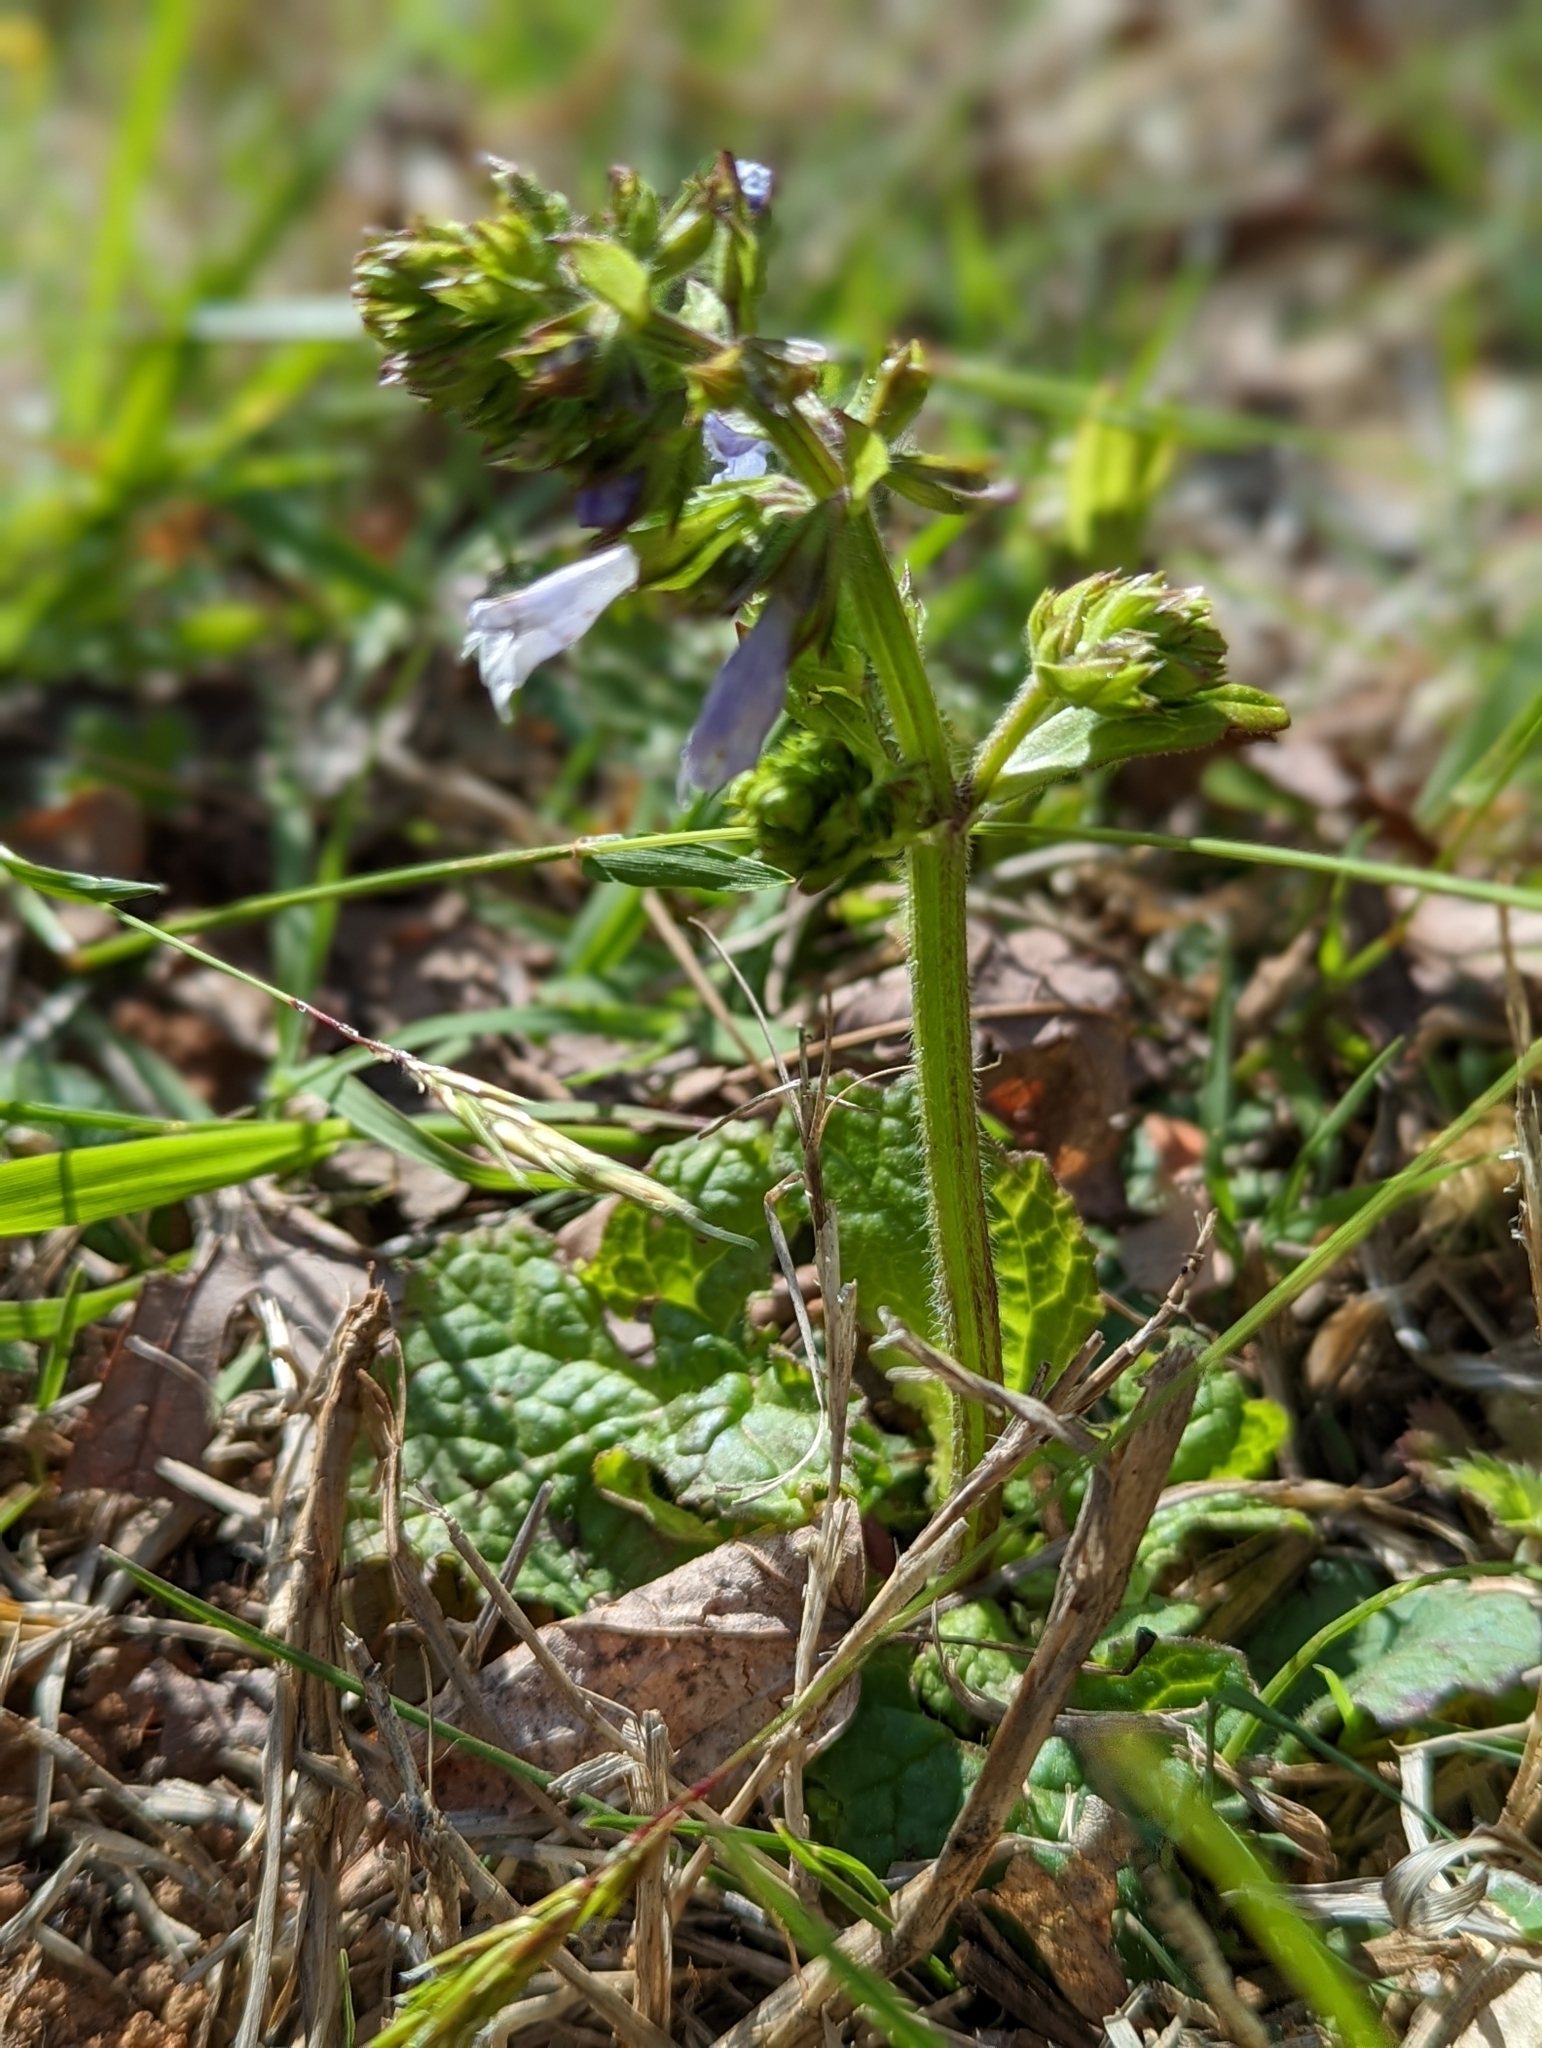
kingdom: Plantae
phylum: Tracheophyta
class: Magnoliopsida
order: Lamiales
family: Lamiaceae
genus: Salvia
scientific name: Salvia lyrata
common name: Cancerweed
